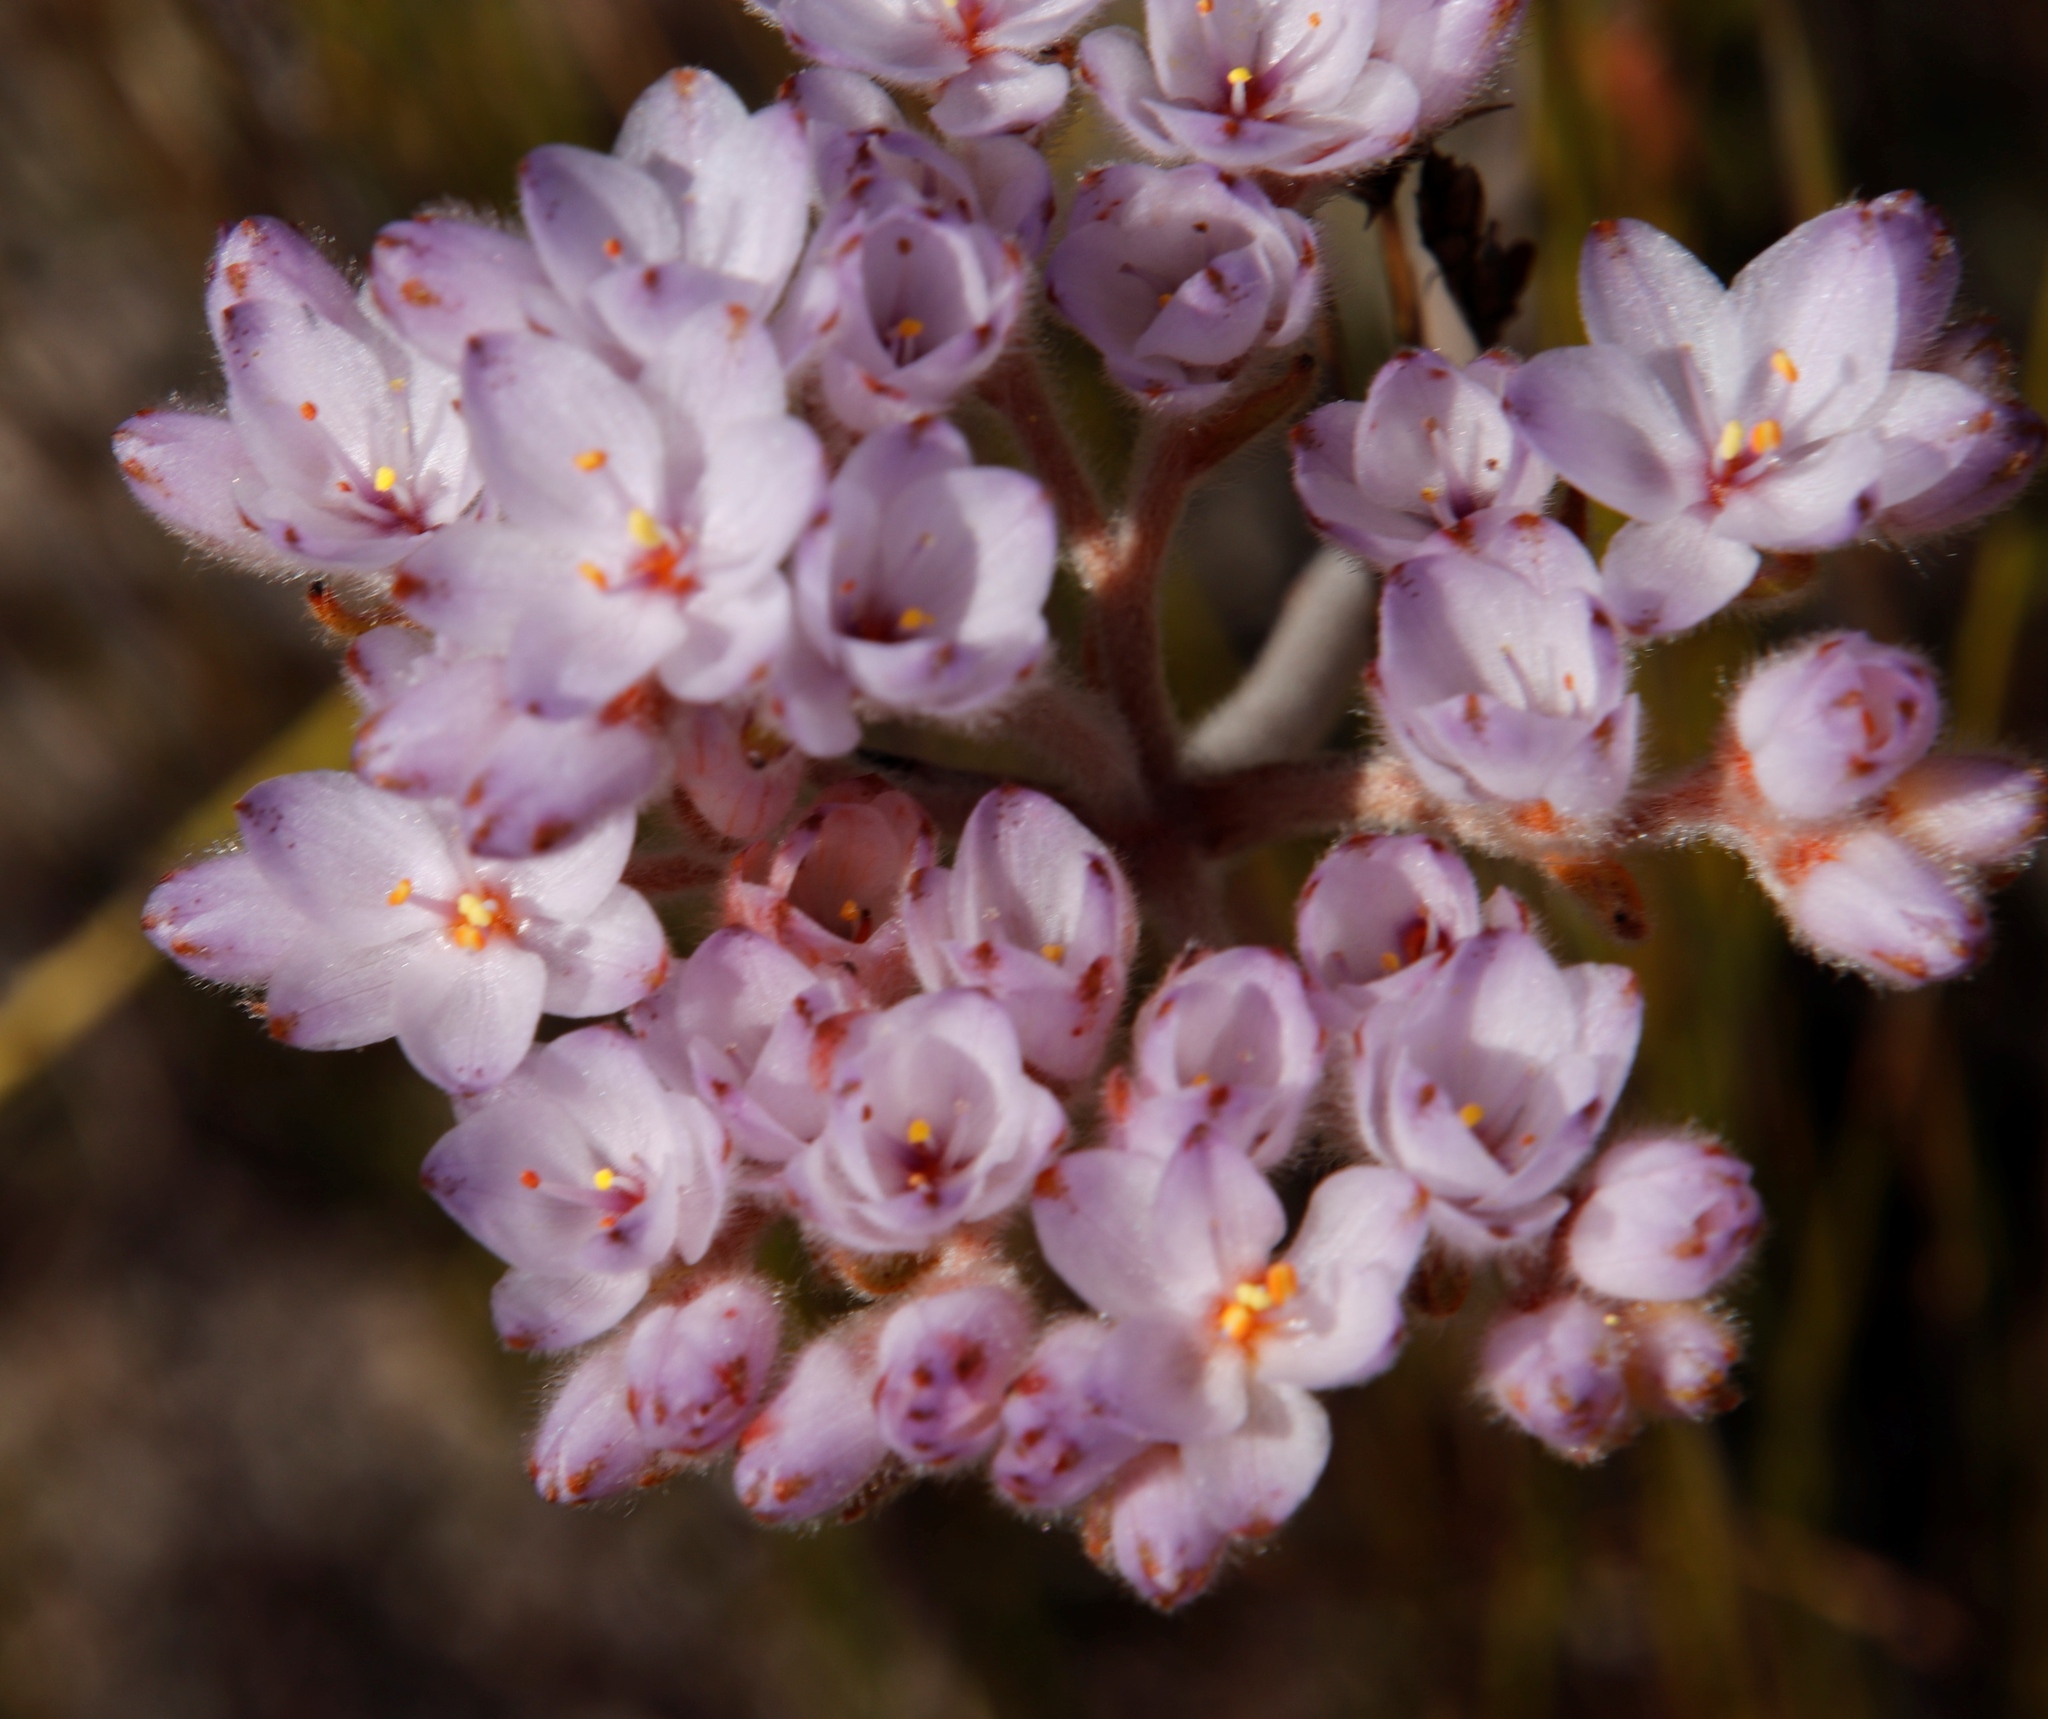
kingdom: Plantae
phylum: Tracheophyta
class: Liliopsida
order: Commelinales
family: Haemodoraceae
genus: Dilatris
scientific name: Dilatris pillansii
